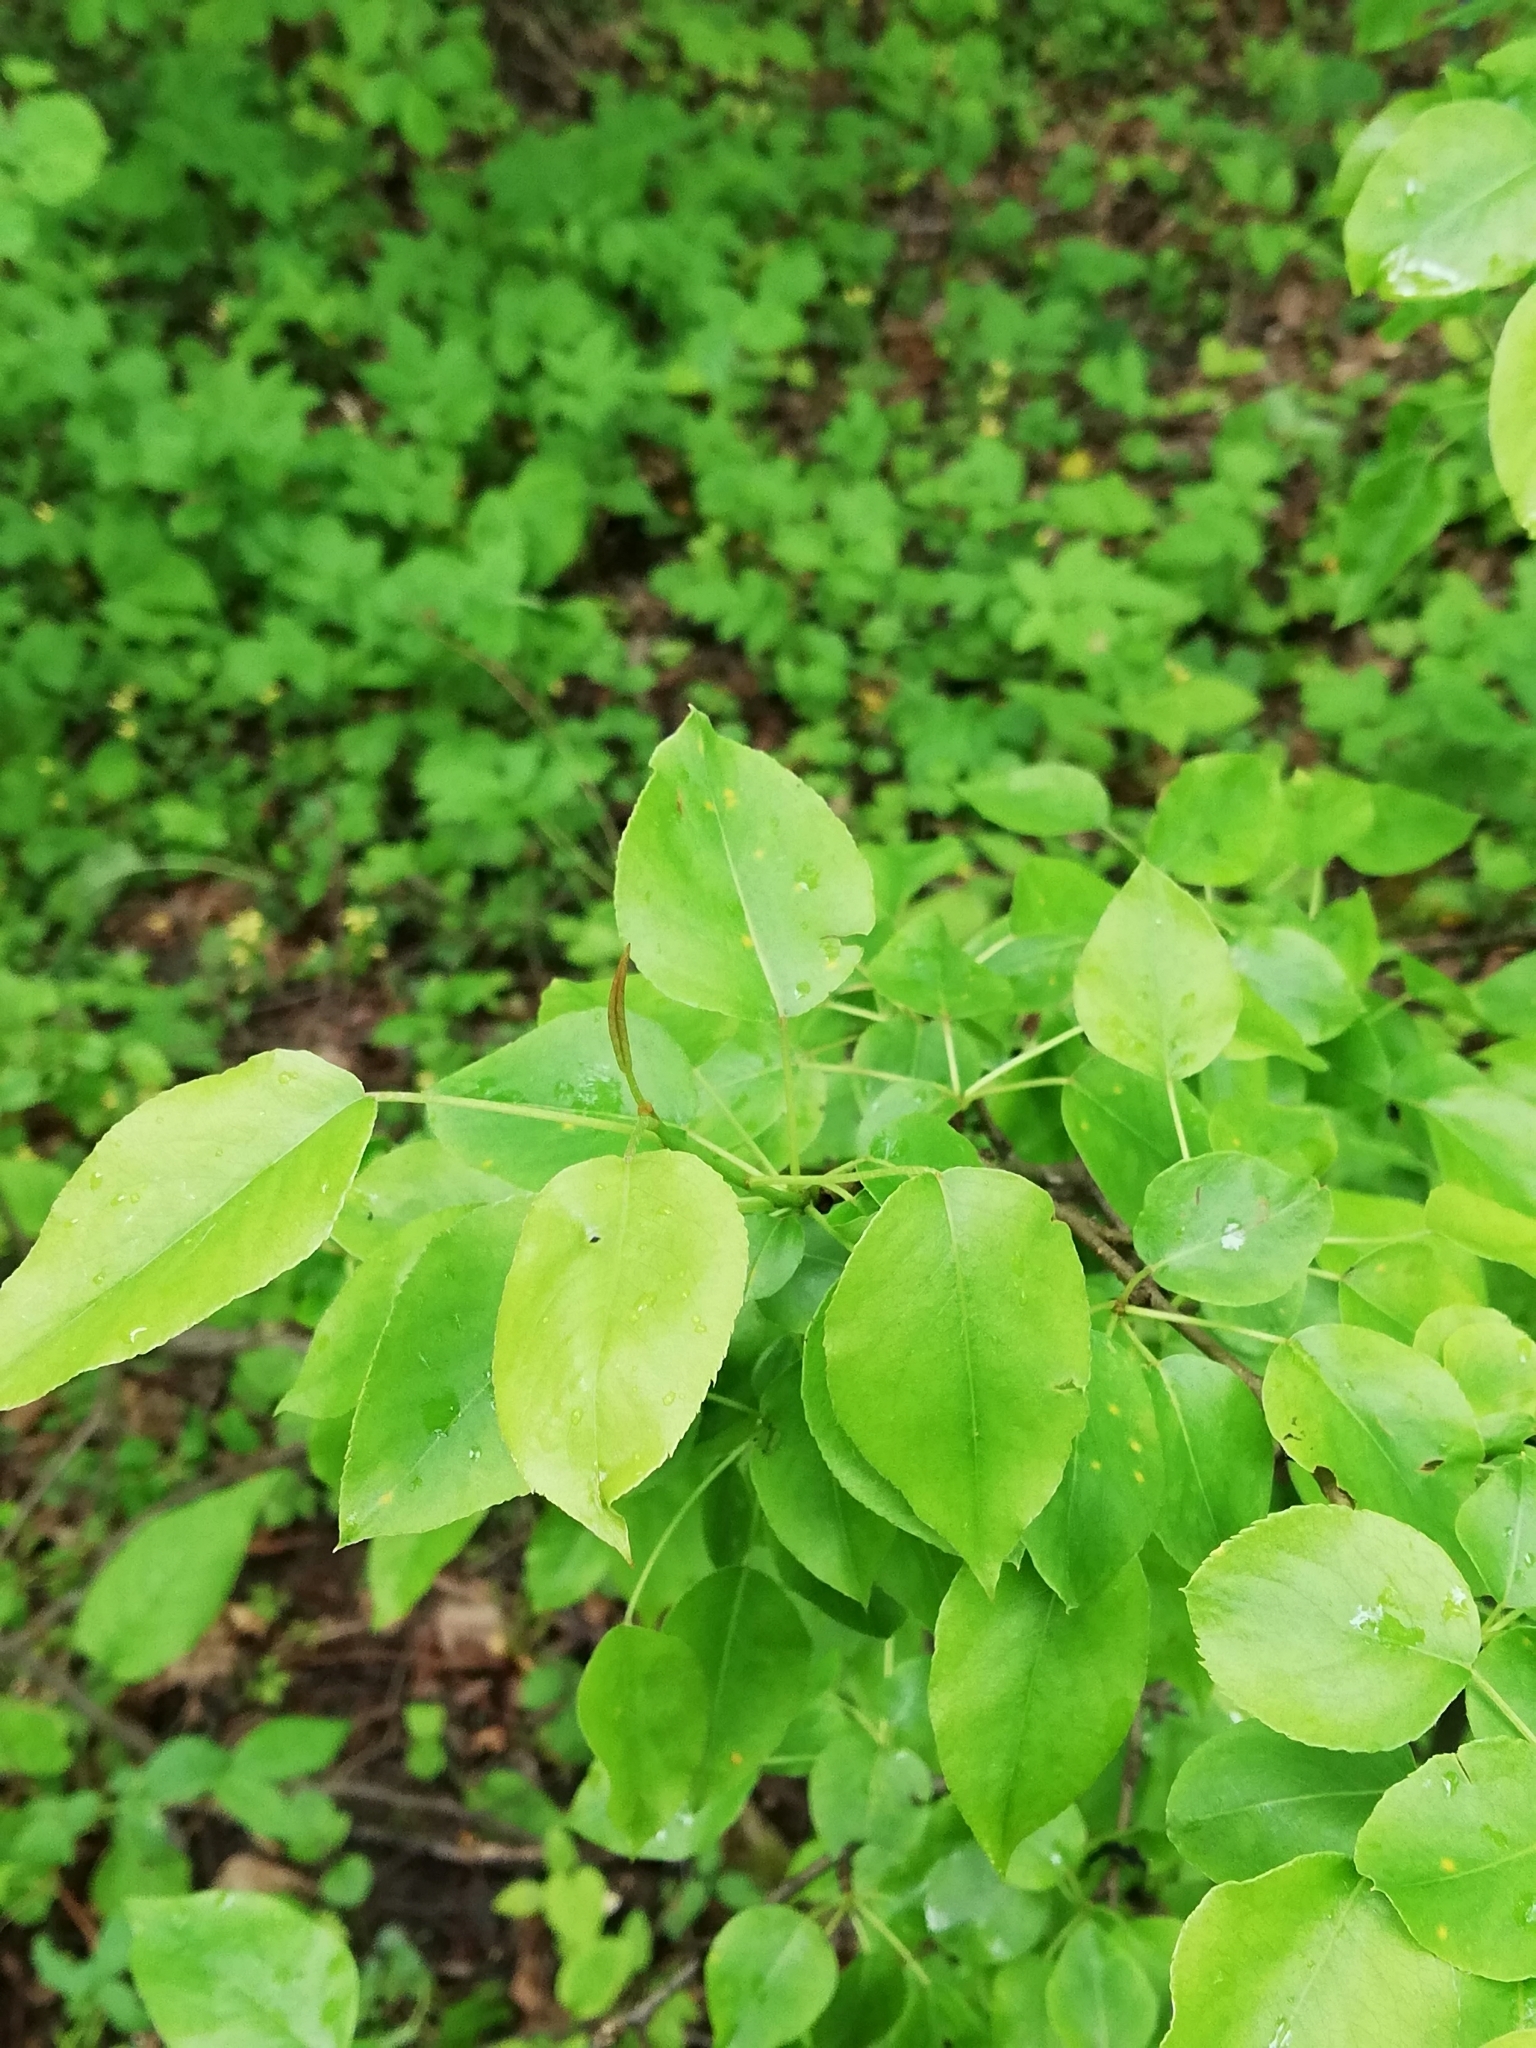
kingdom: Plantae
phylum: Tracheophyta
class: Magnoliopsida
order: Rosales
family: Rosaceae
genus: Pyrus
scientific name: Pyrus communis
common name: Pear
